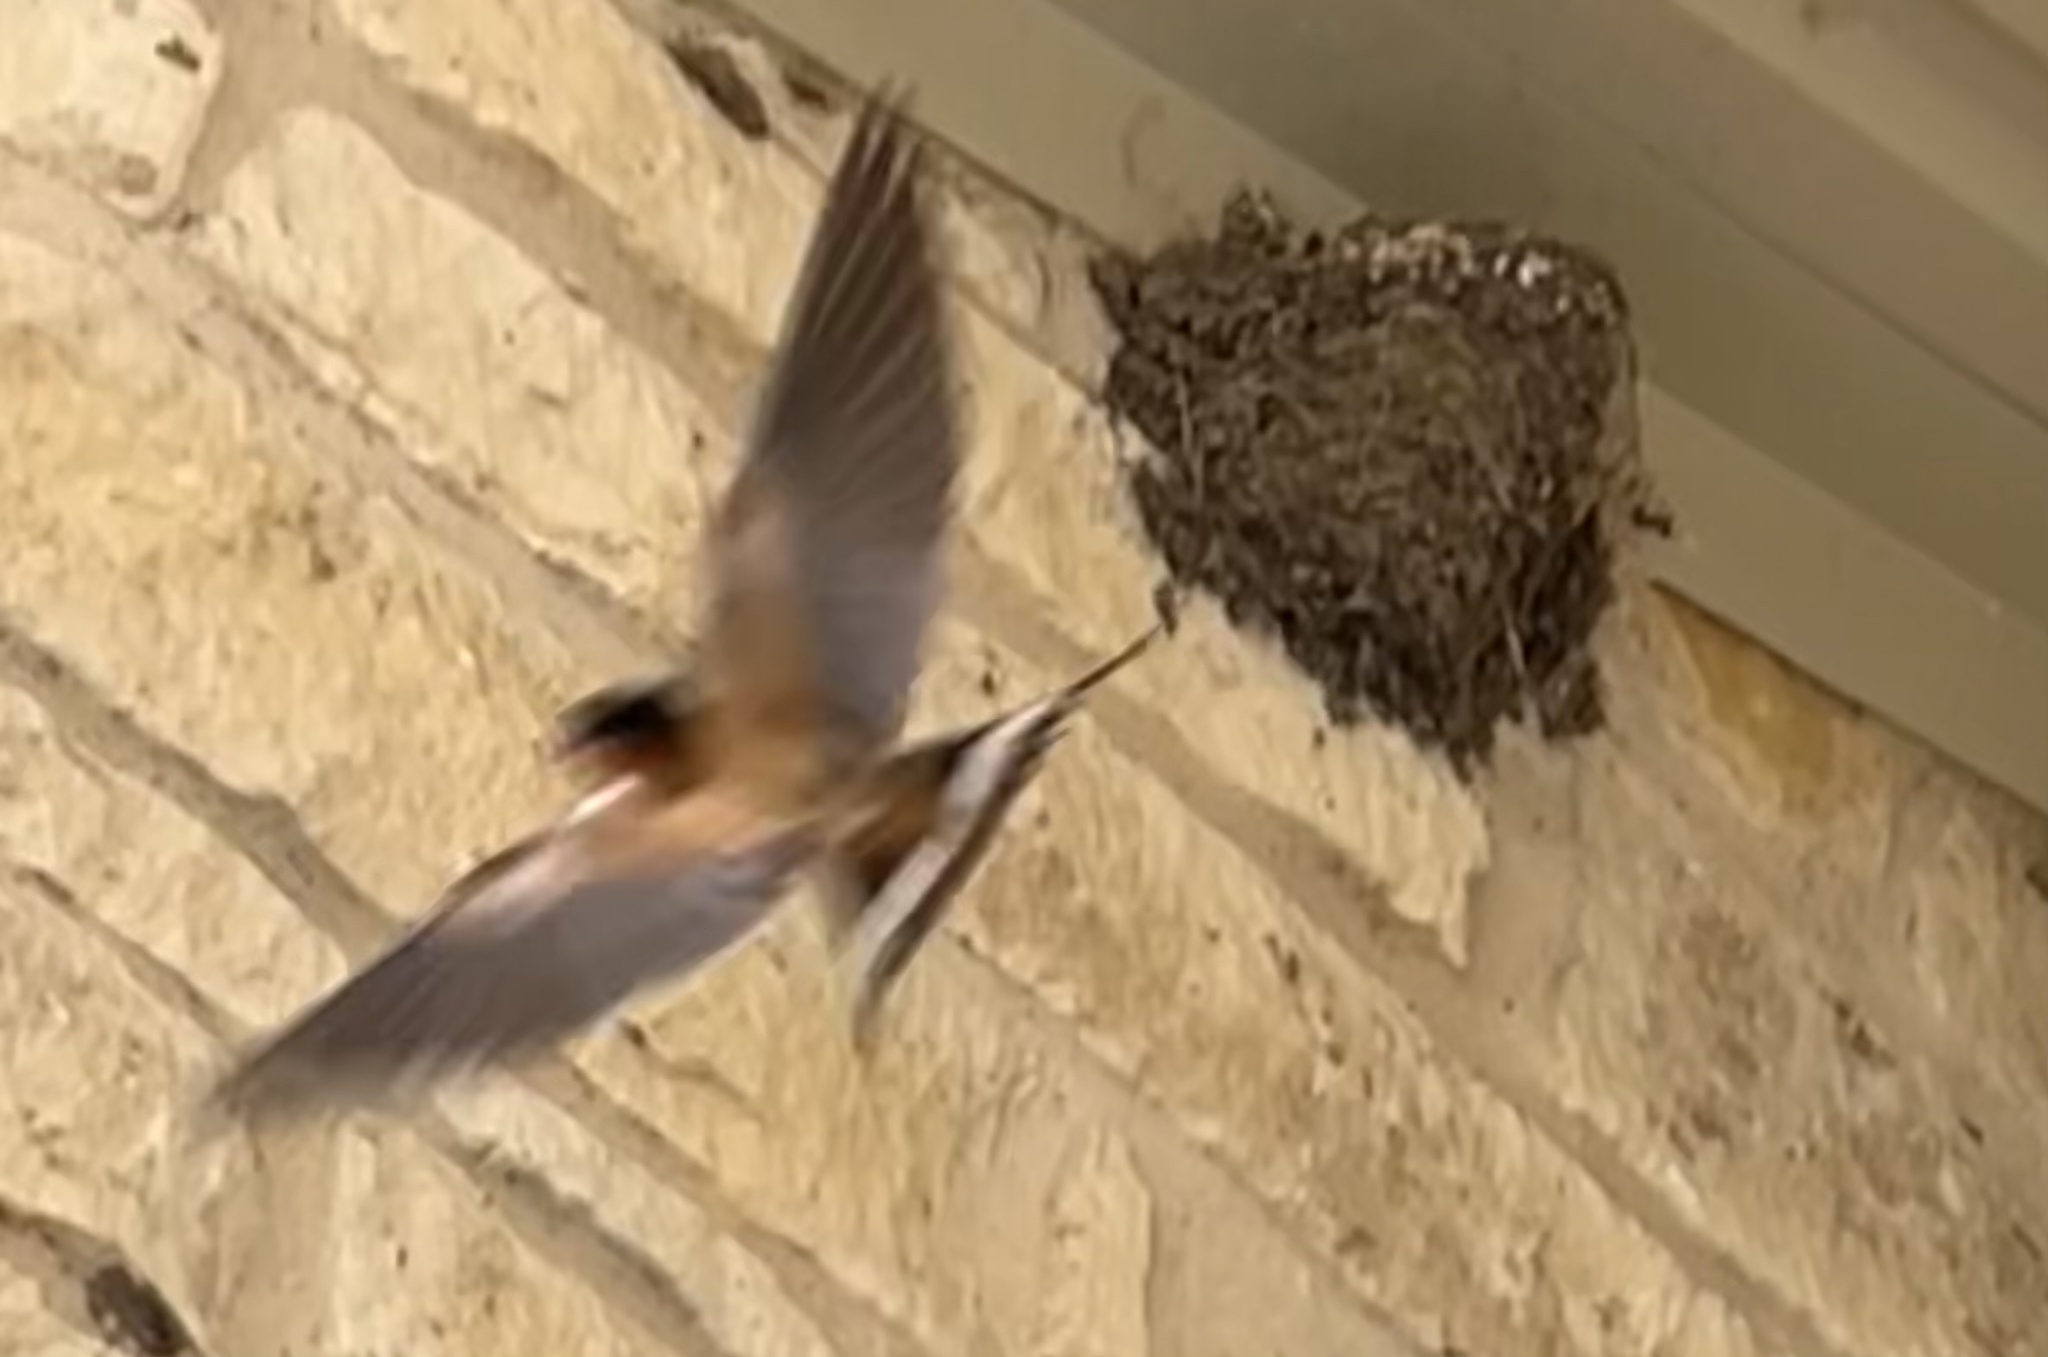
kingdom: Animalia
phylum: Chordata
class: Aves
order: Passeriformes
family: Hirundinidae
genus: Hirundo
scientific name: Hirundo rustica
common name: Barn swallow
